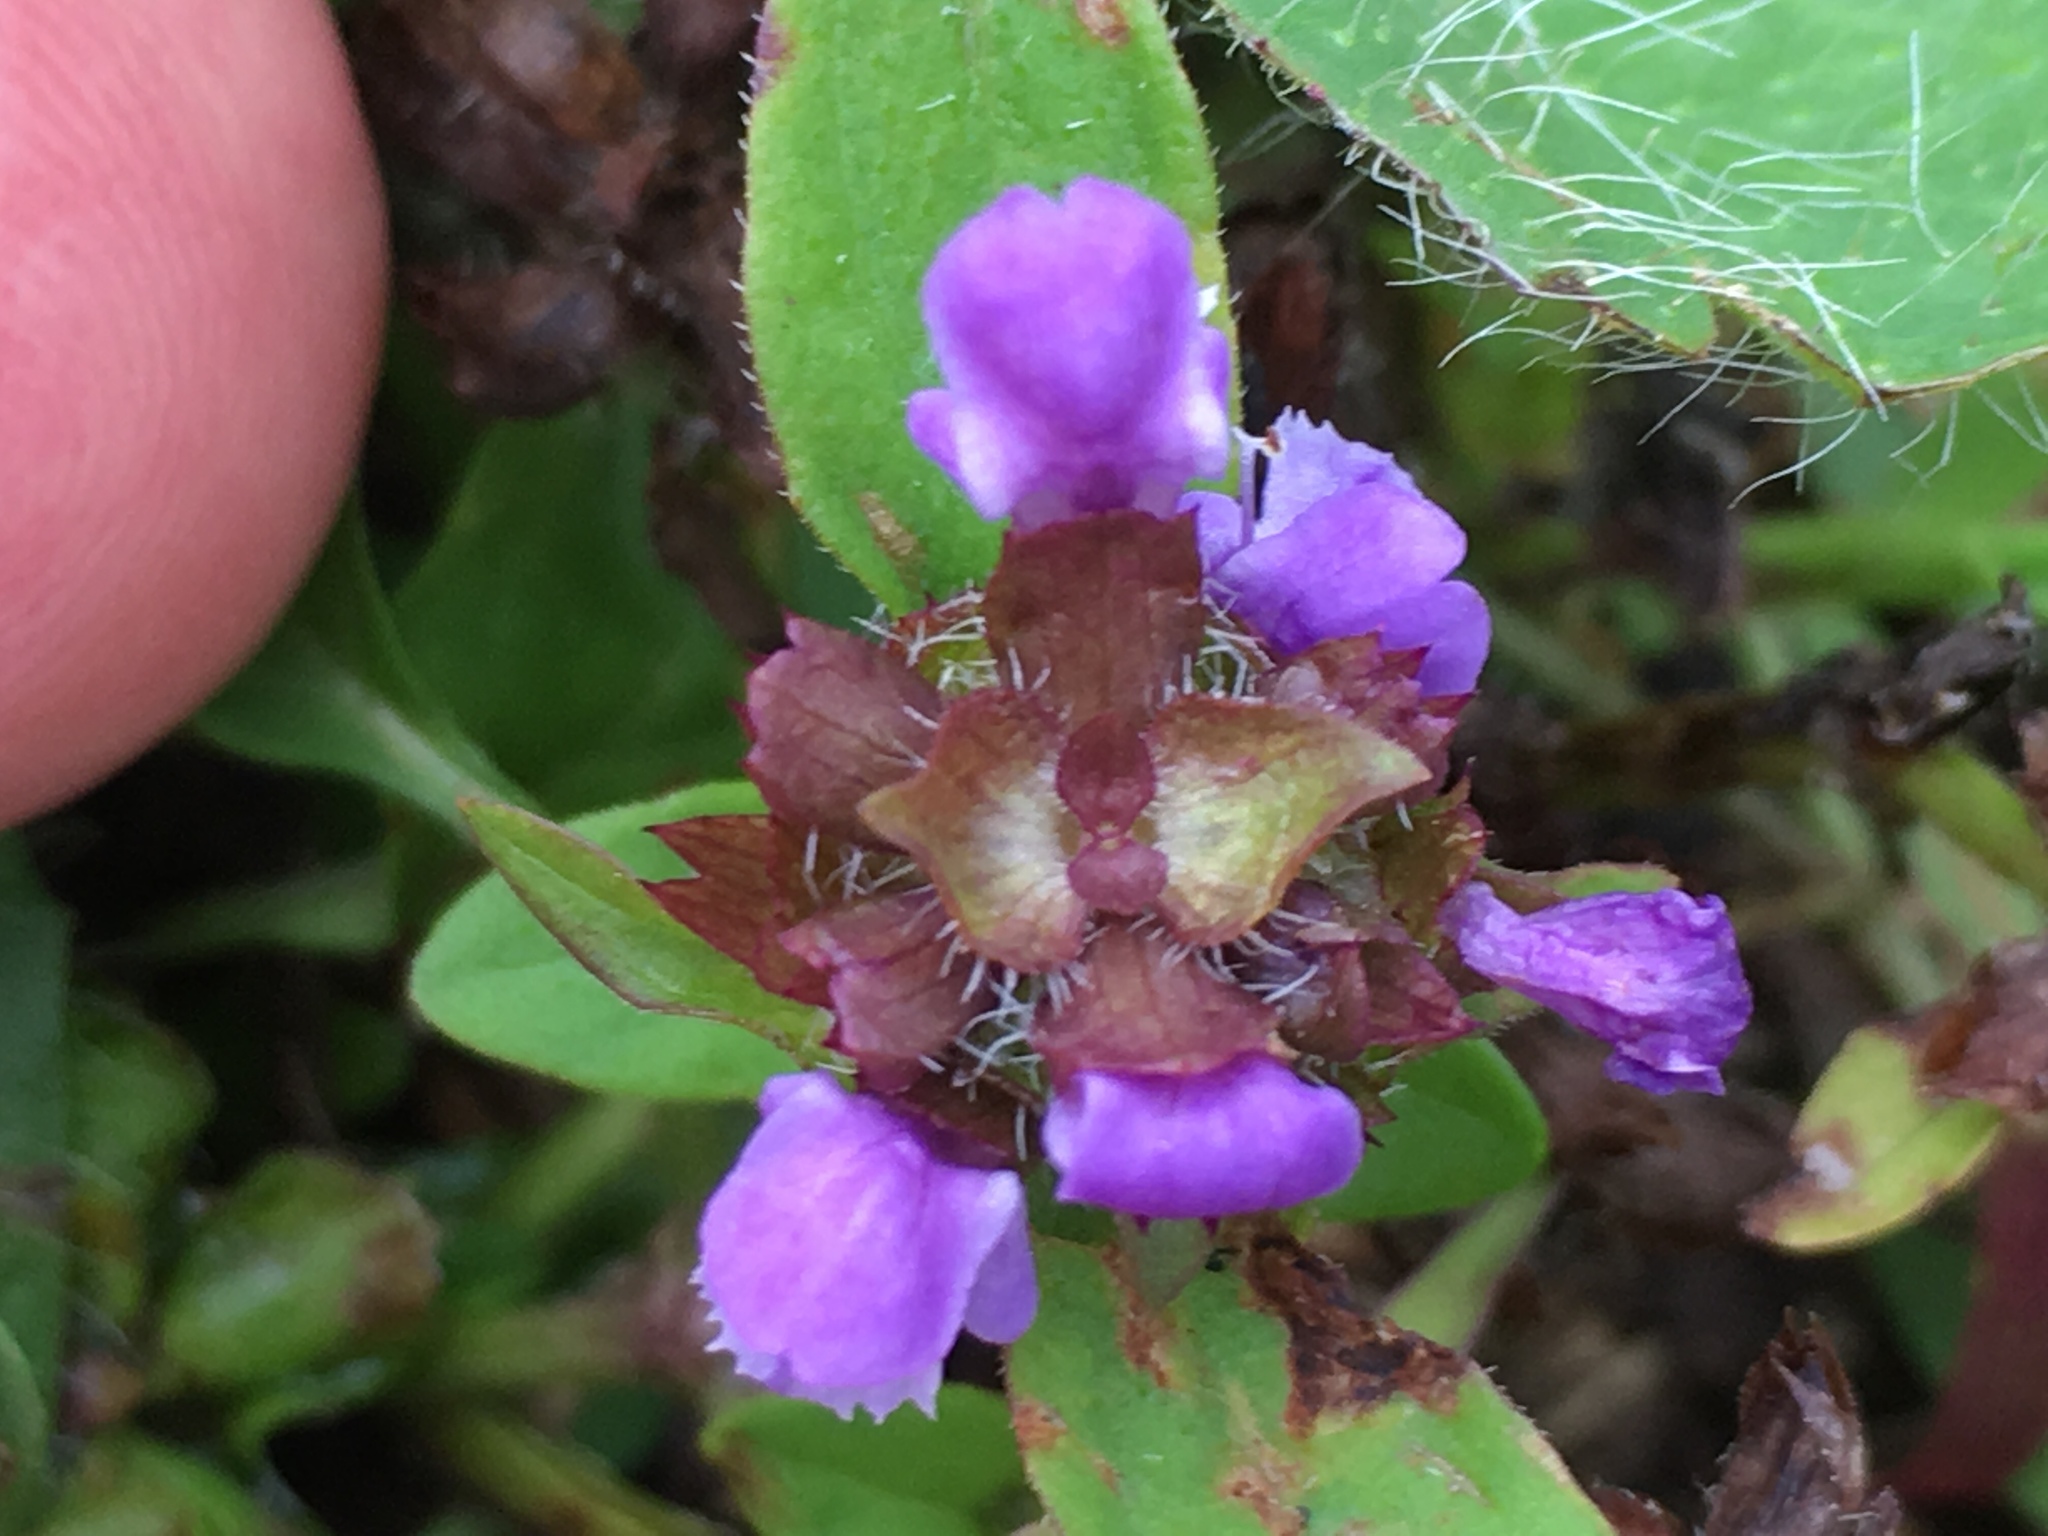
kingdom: Plantae
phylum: Tracheophyta
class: Magnoliopsida
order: Lamiales
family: Lamiaceae
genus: Prunella
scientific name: Prunella vulgaris
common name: Heal-all
